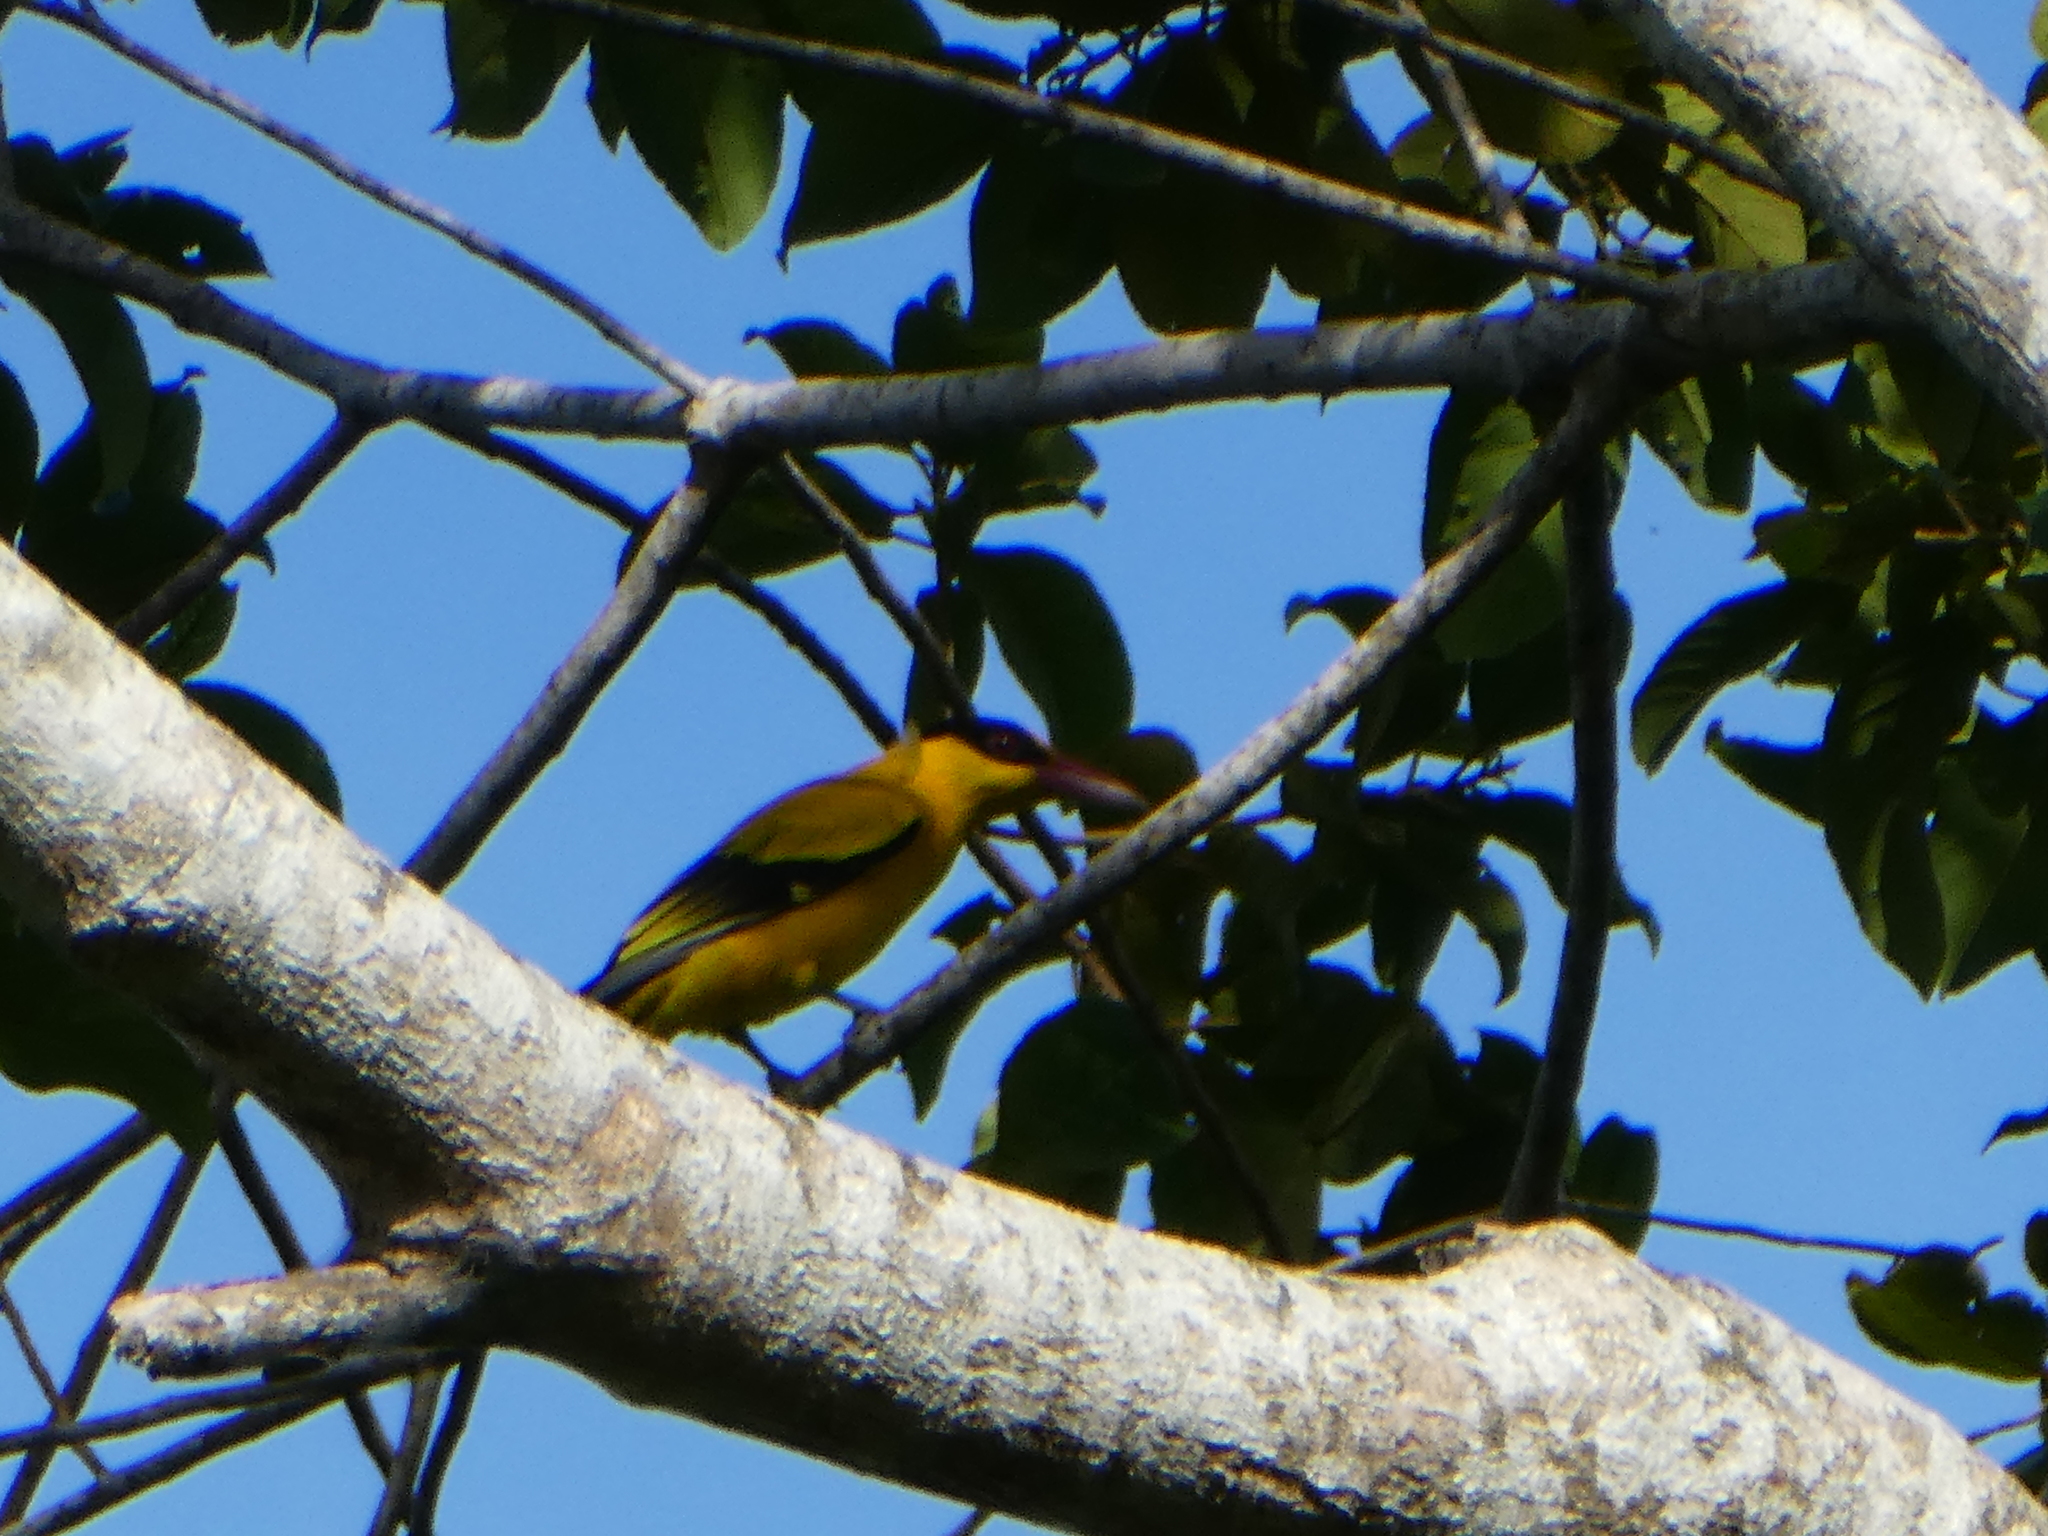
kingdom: Animalia
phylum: Chordata
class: Aves
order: Passeriformes
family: Oriolidae
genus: Oriolus
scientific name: Oriolus chinensis
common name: Black-naped oriole
